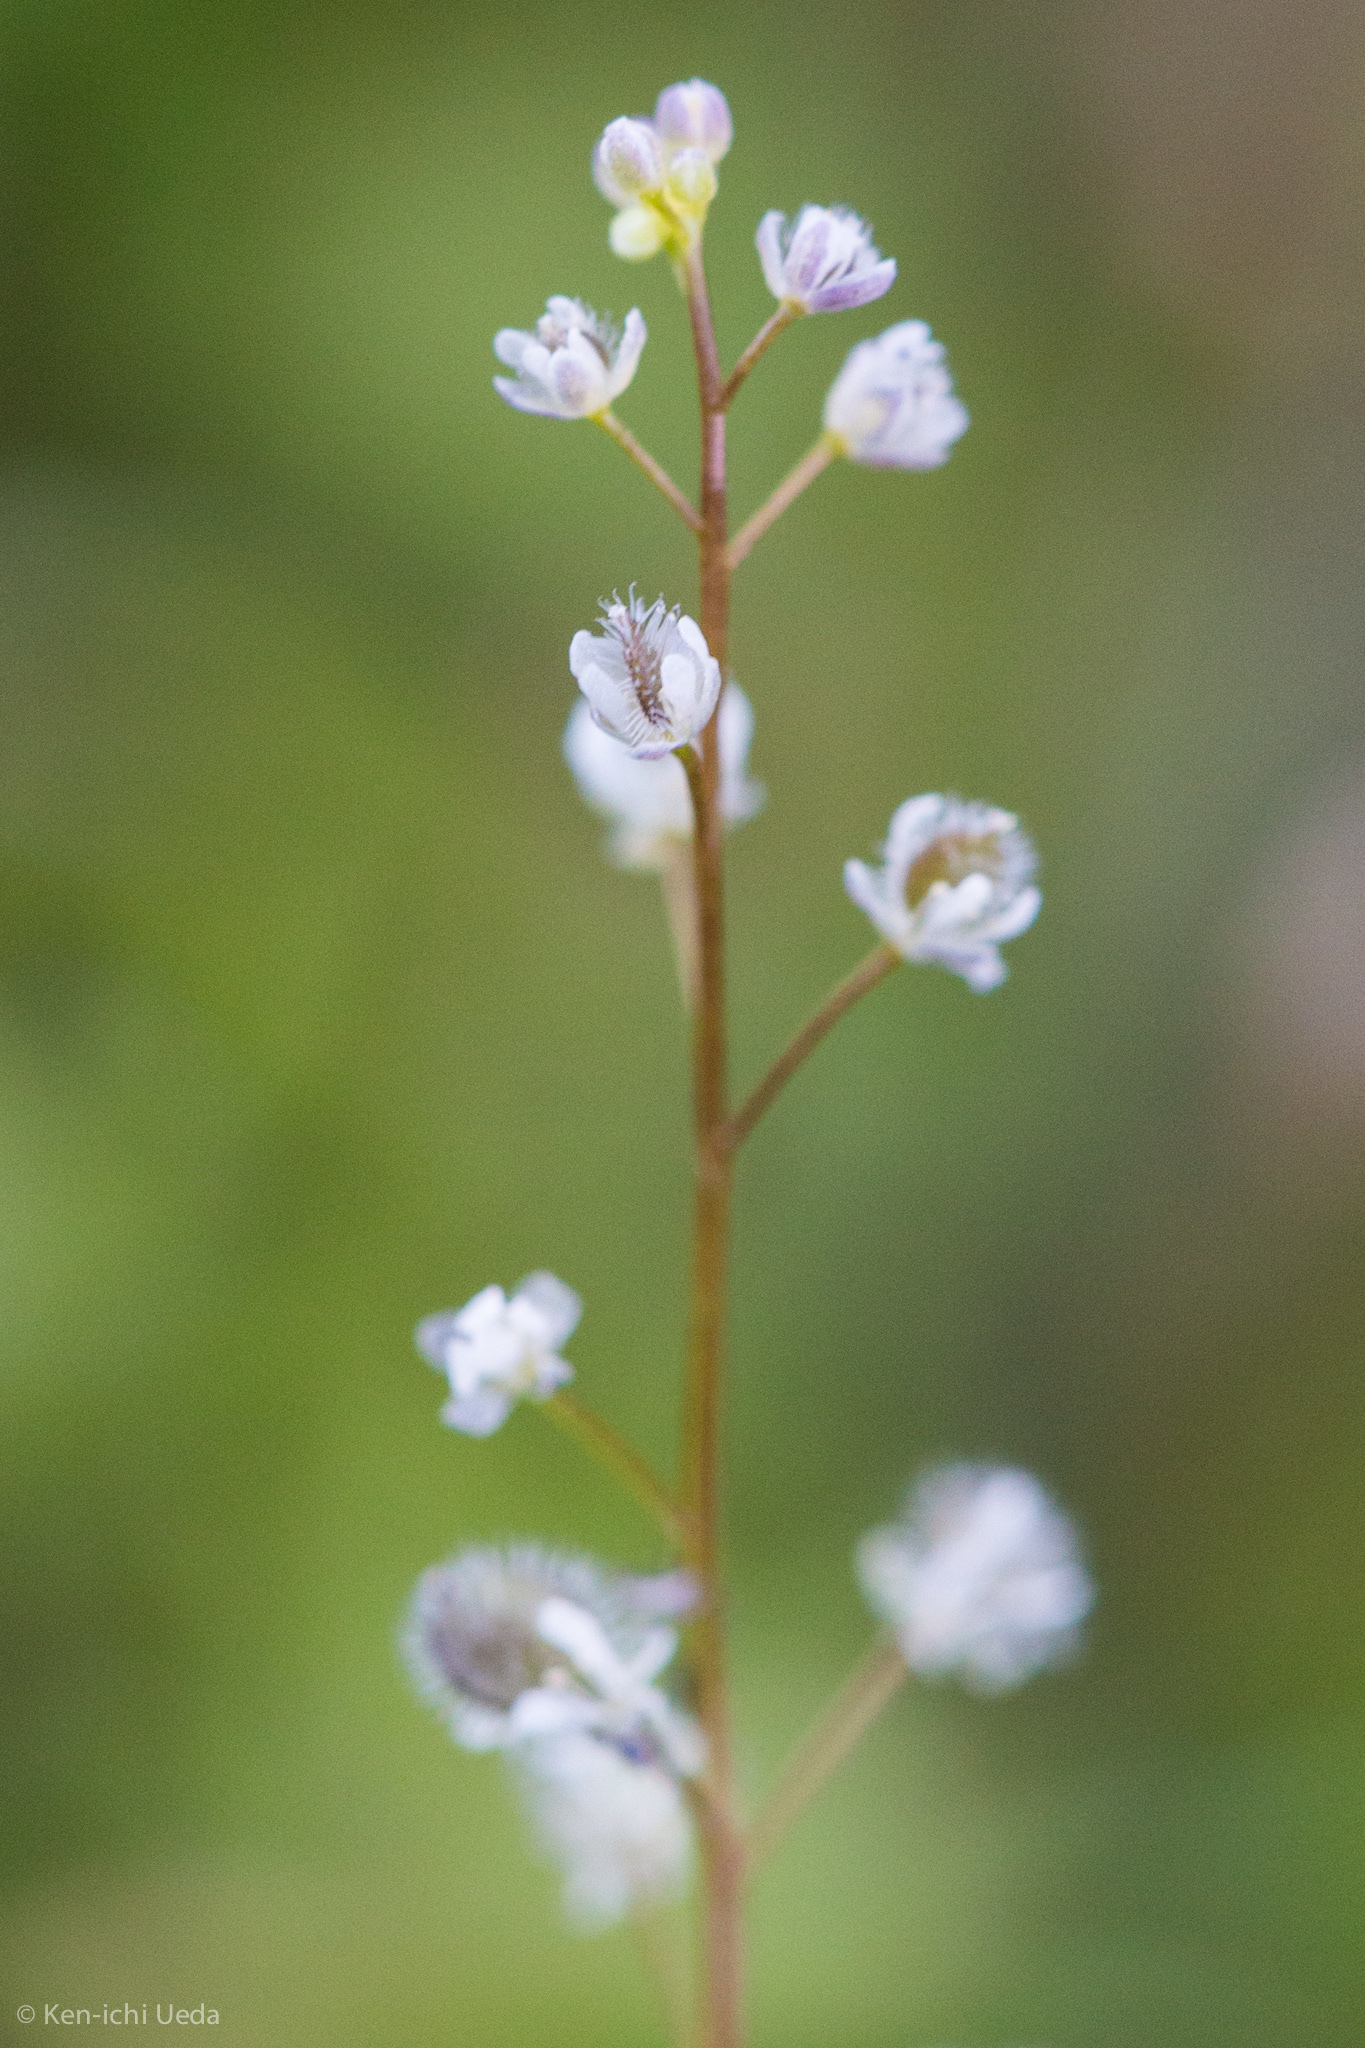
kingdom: Plantae
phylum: Tracheophyta
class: Magnoliopsida
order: Brassicales
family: Brassicaceae
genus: Athysanus
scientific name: Athysanus pusillus
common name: Common sandweed
